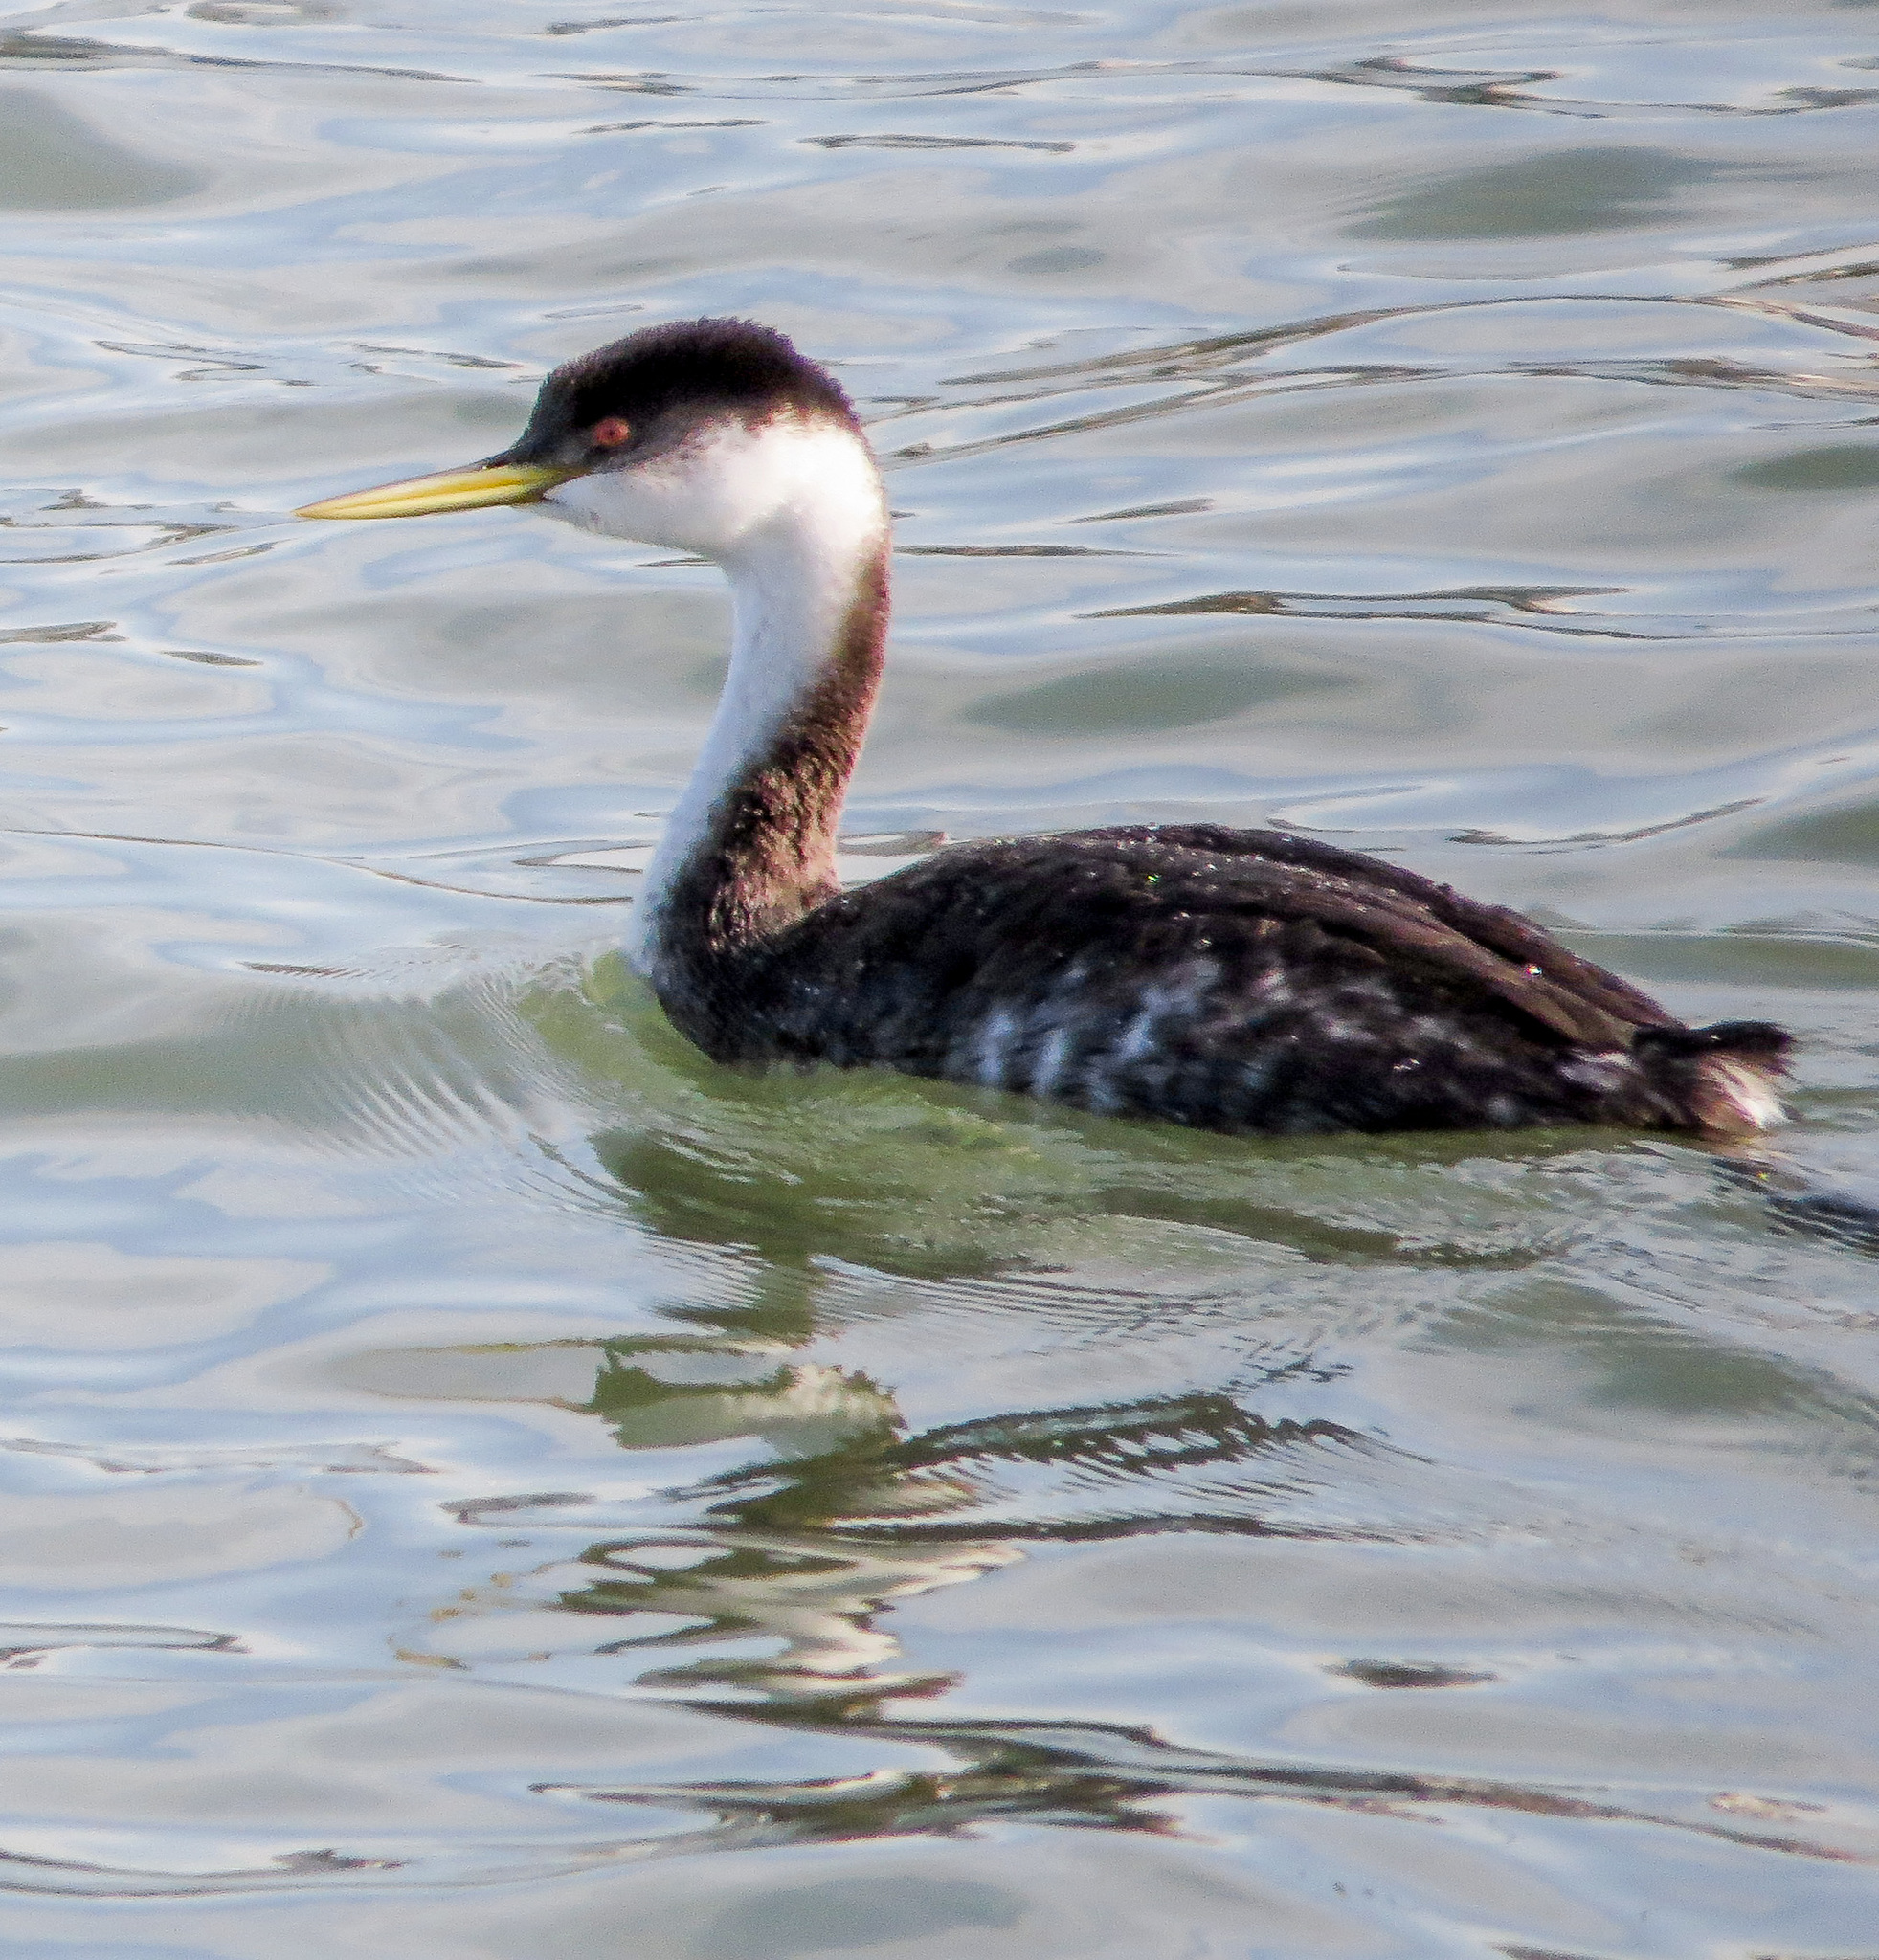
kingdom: Animalia
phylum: Chordata
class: Aves
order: Podicipediformes
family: Podicipedidae
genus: Aechmophorus
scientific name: Aechmophorus occidentalis
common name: Western grebe
